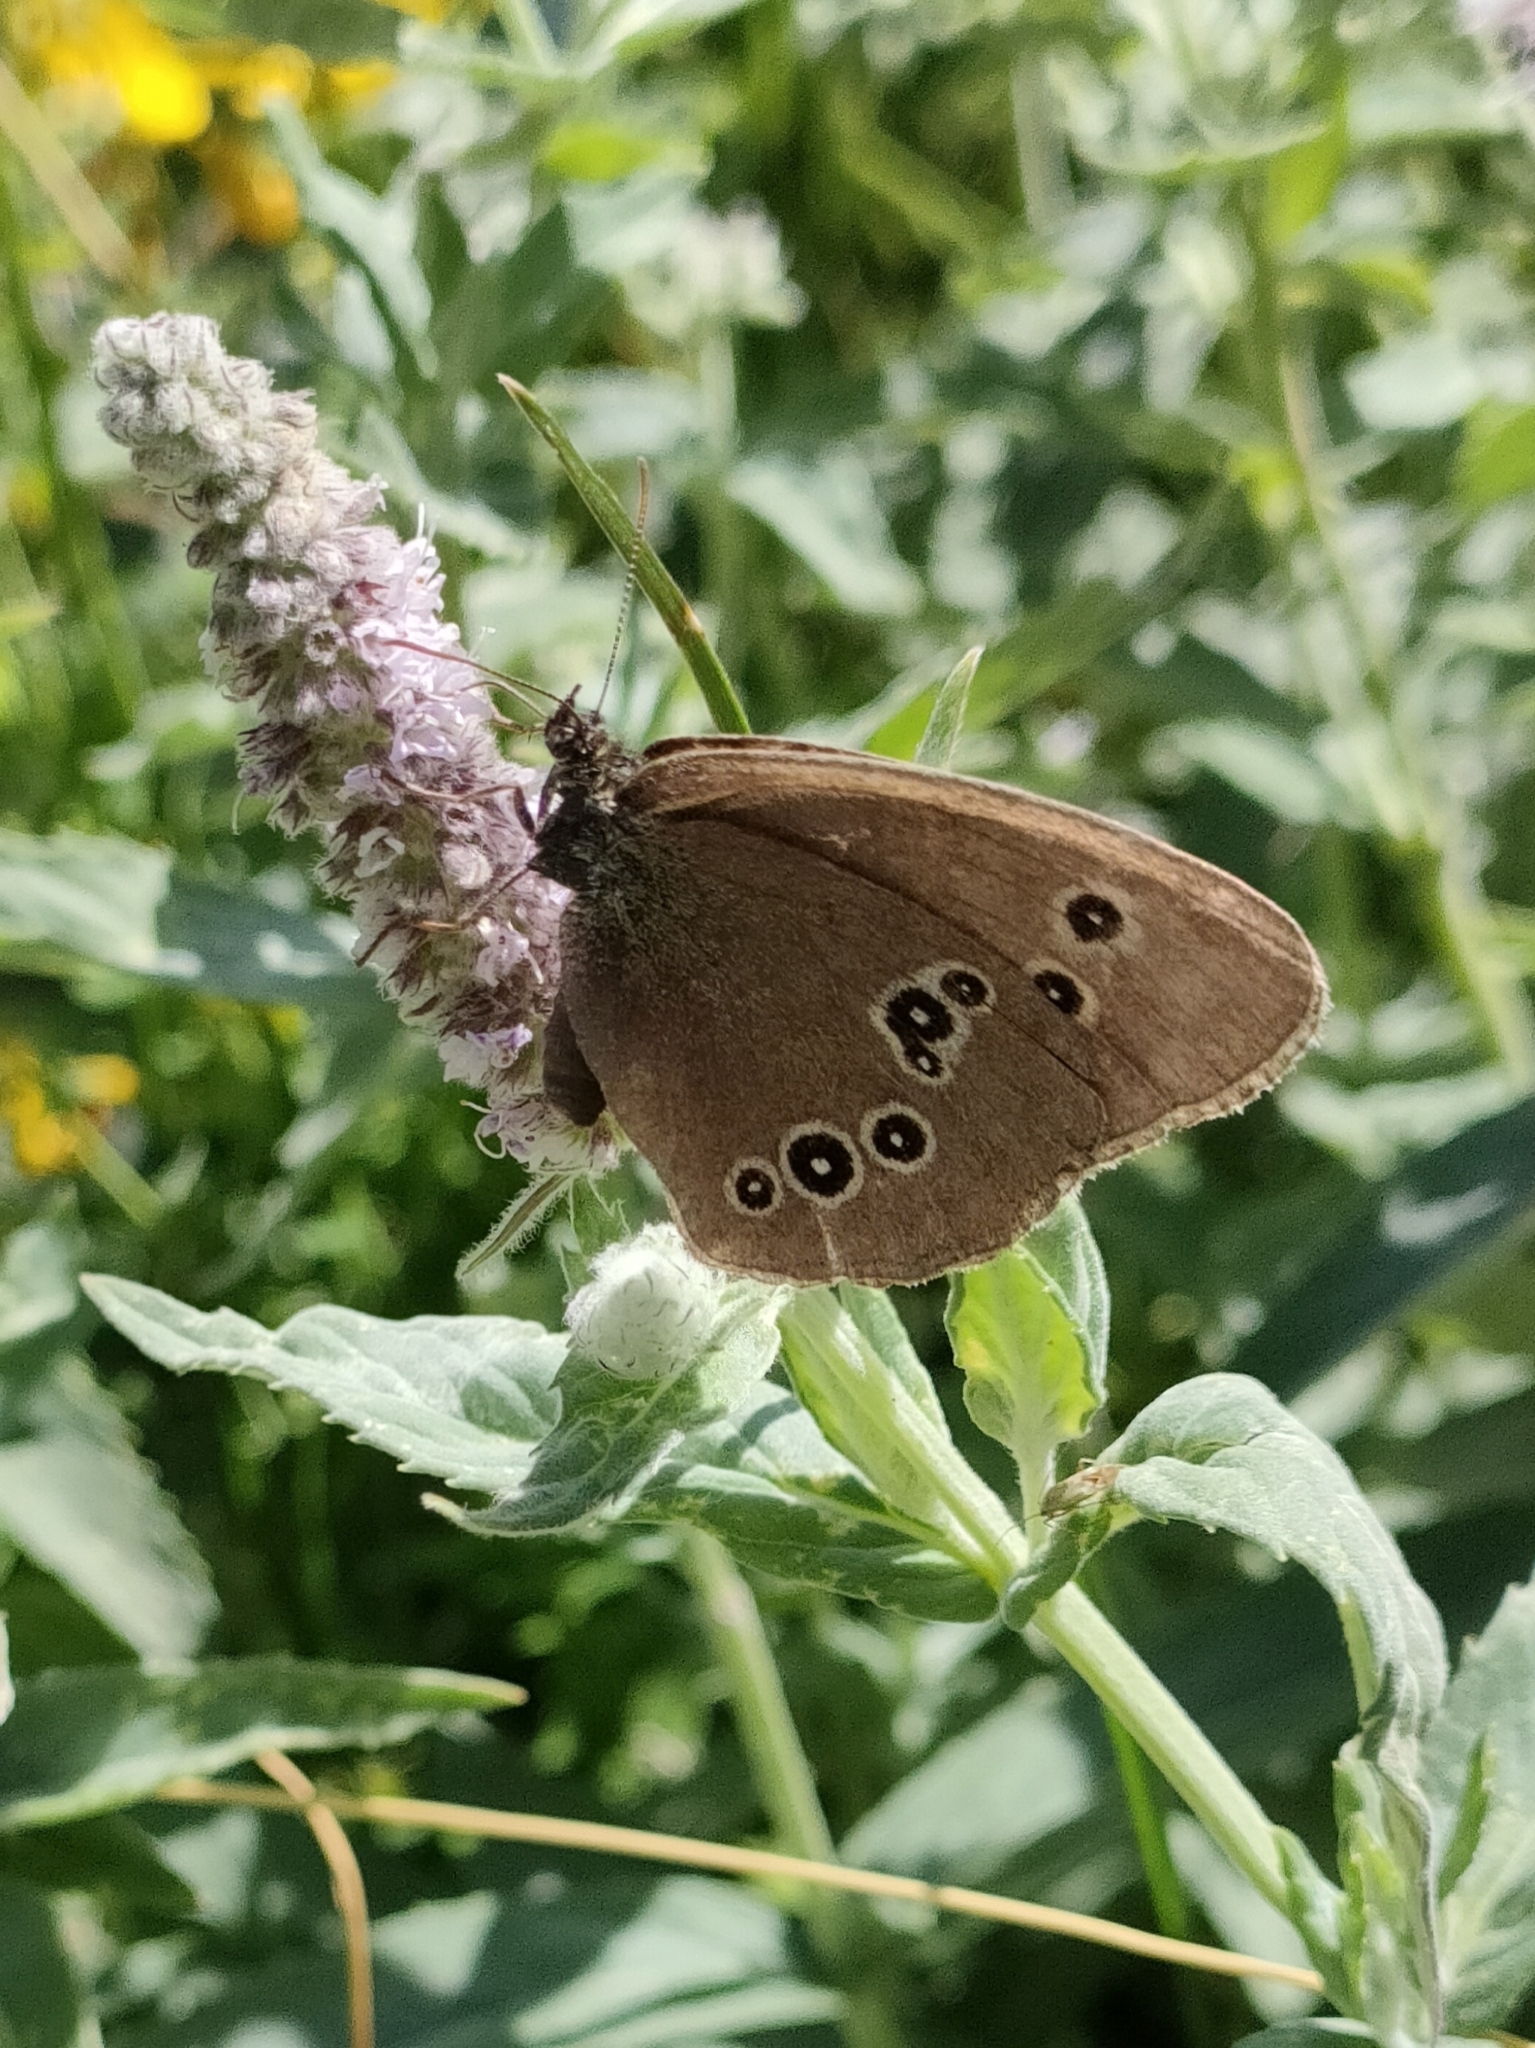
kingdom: Animalia
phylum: Arthropoda
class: Insecta
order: Lepidoptera
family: Nymphalidae
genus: Aphantopus
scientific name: Aphantopus hyperantus
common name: Ringlet
